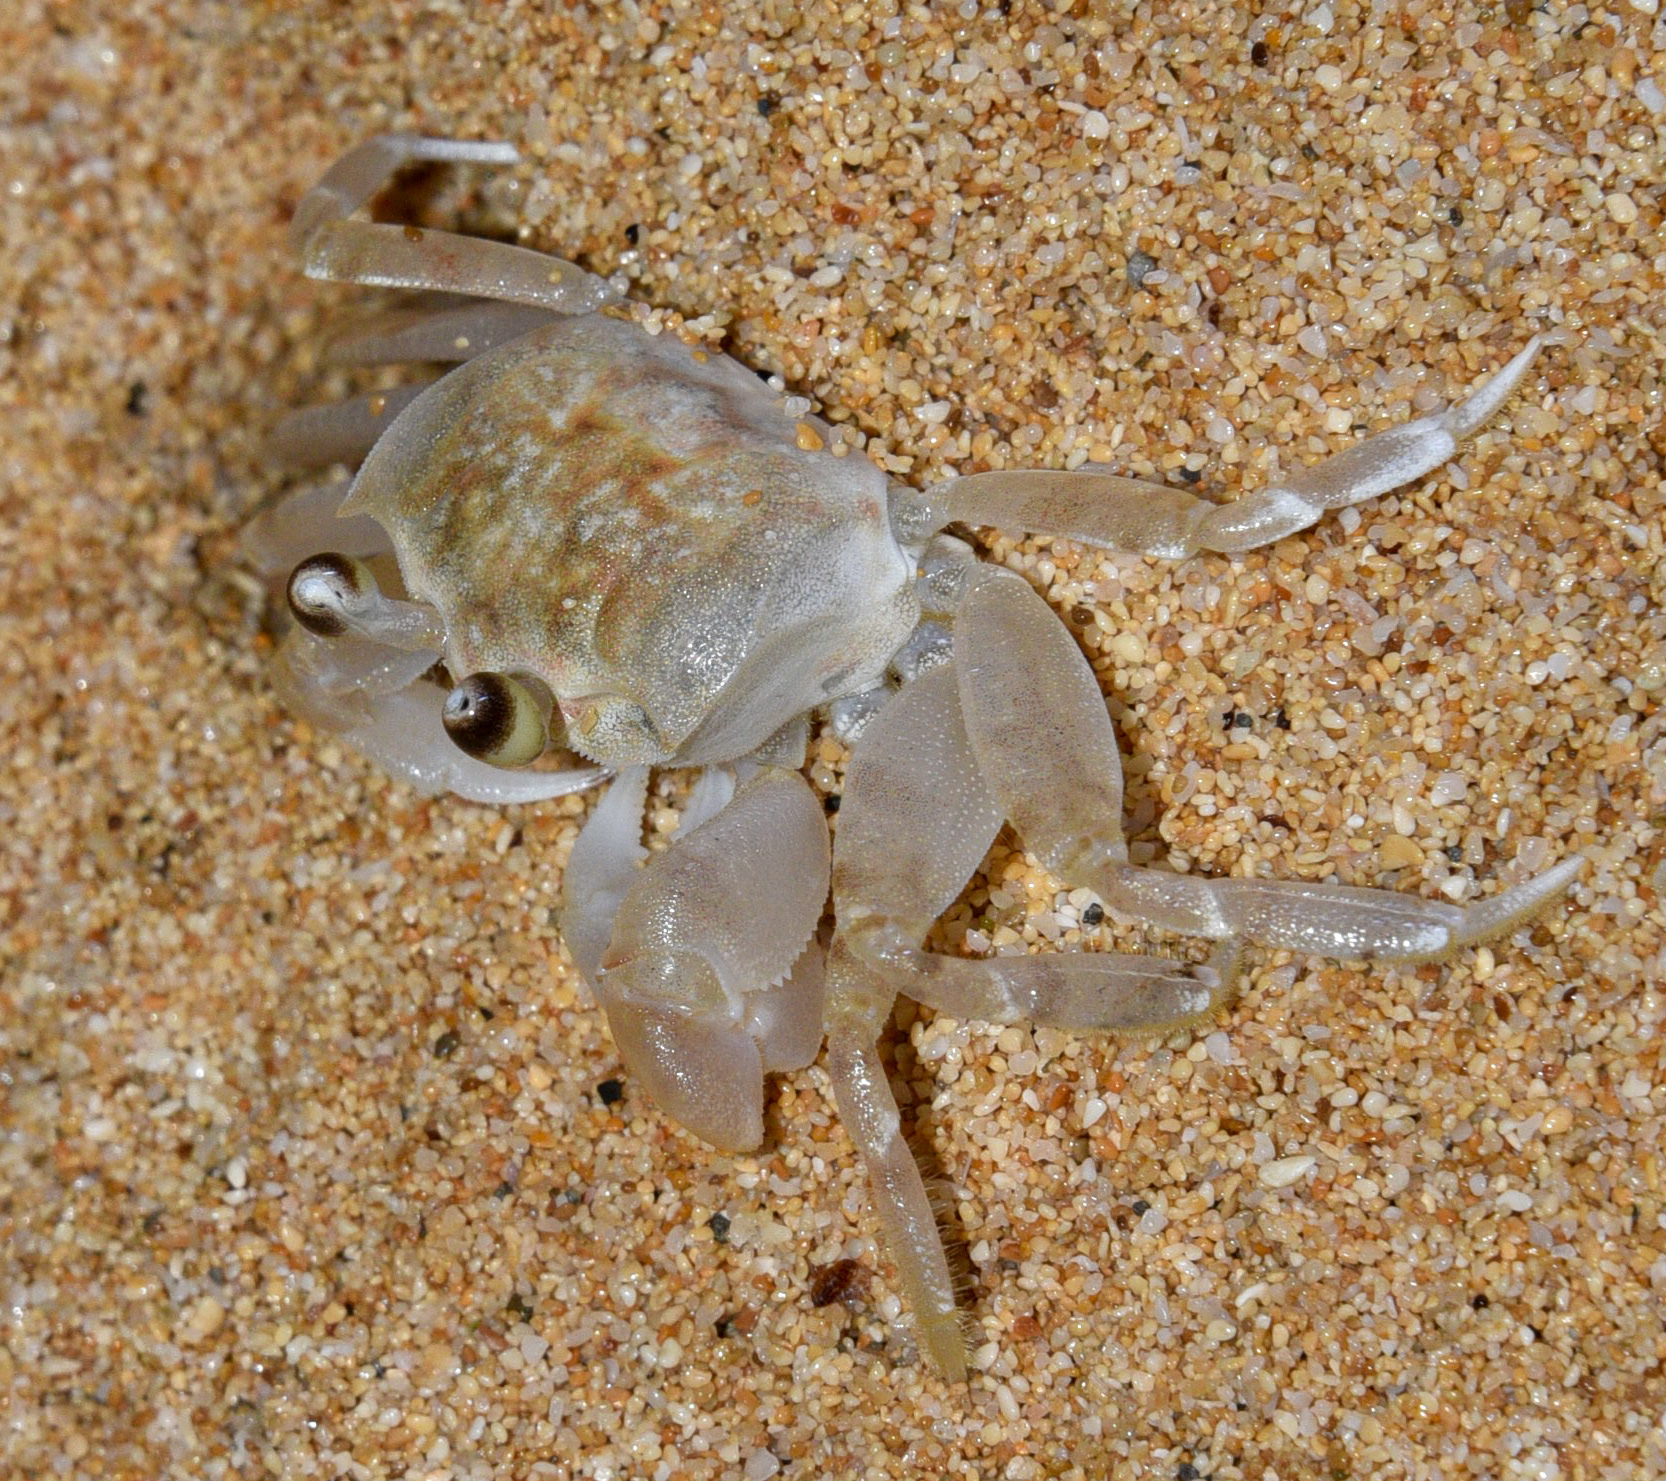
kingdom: Animalia
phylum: Arthropoda
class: Malacostraca
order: Decapoda
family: Ocypodidae
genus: Ocypode
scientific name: Ocypode pallidula
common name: Pallid ghost crab
